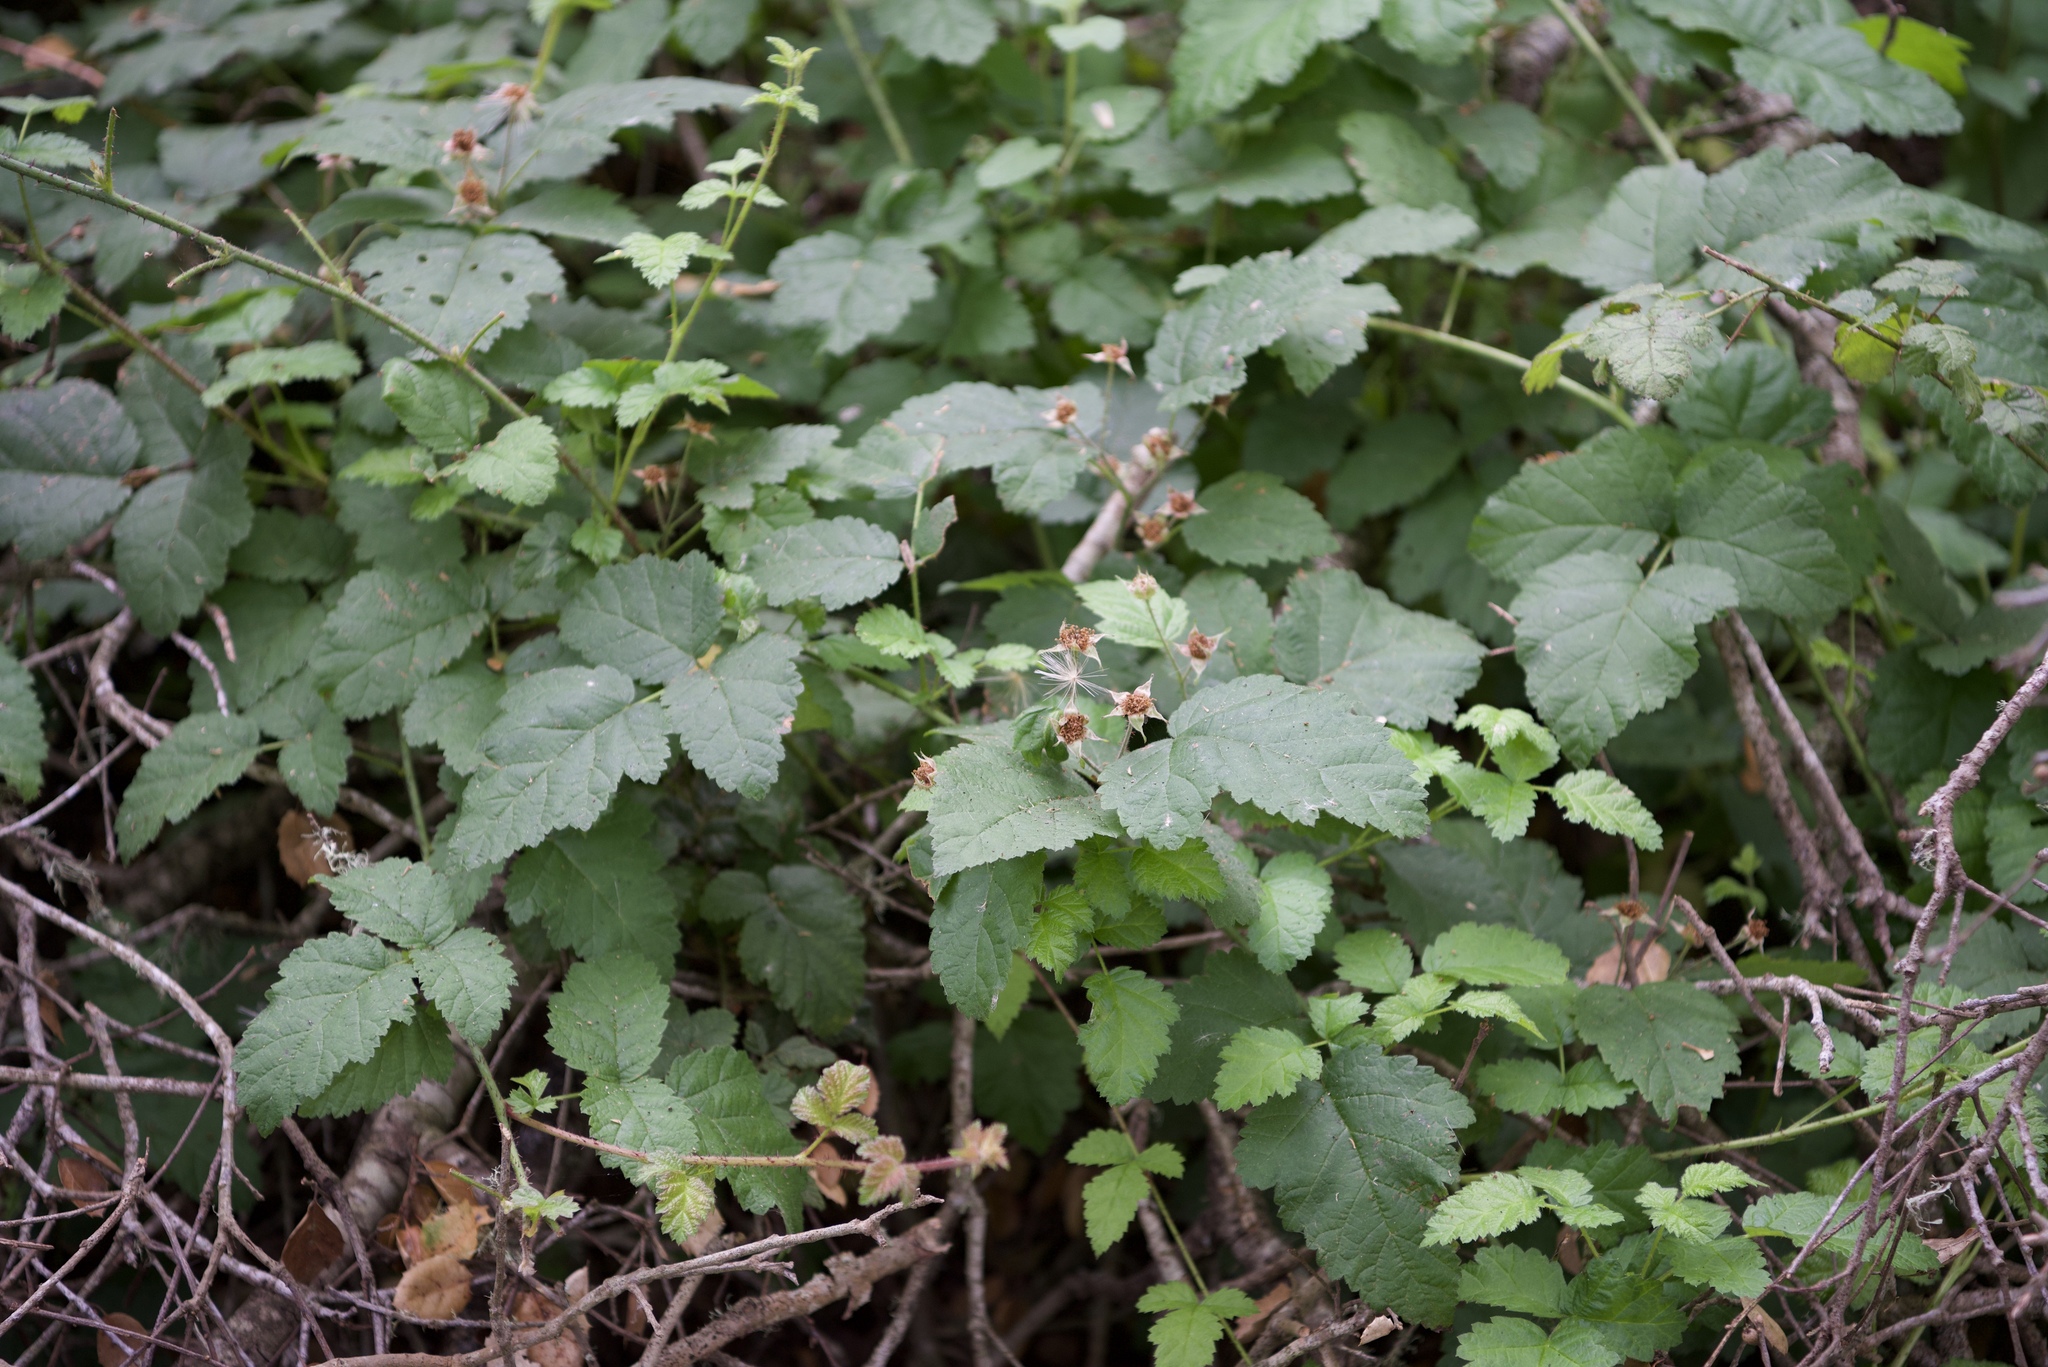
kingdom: Plantae
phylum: Tracheophyta
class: Magnoliopsida
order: Rosales
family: Rosaceae
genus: Rubus
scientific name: Rubus ursinus
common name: Pacific blackberry
